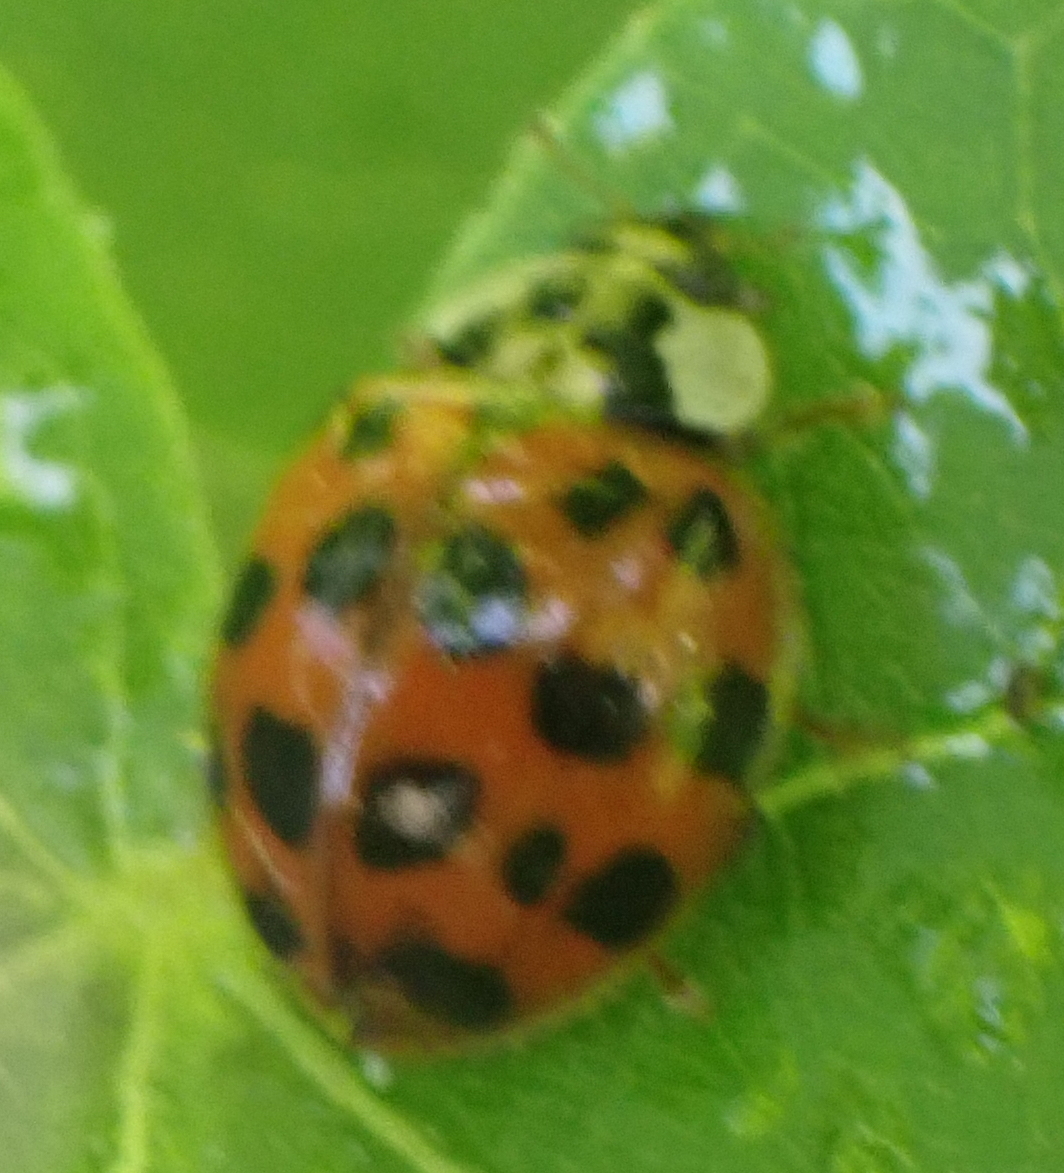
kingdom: Animalia
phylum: Arthropoda
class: Insecta
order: Coleoptera
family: Coccinellidae
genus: Harmonia
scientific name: Harmonia axyridis
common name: Harlequin ladybird
